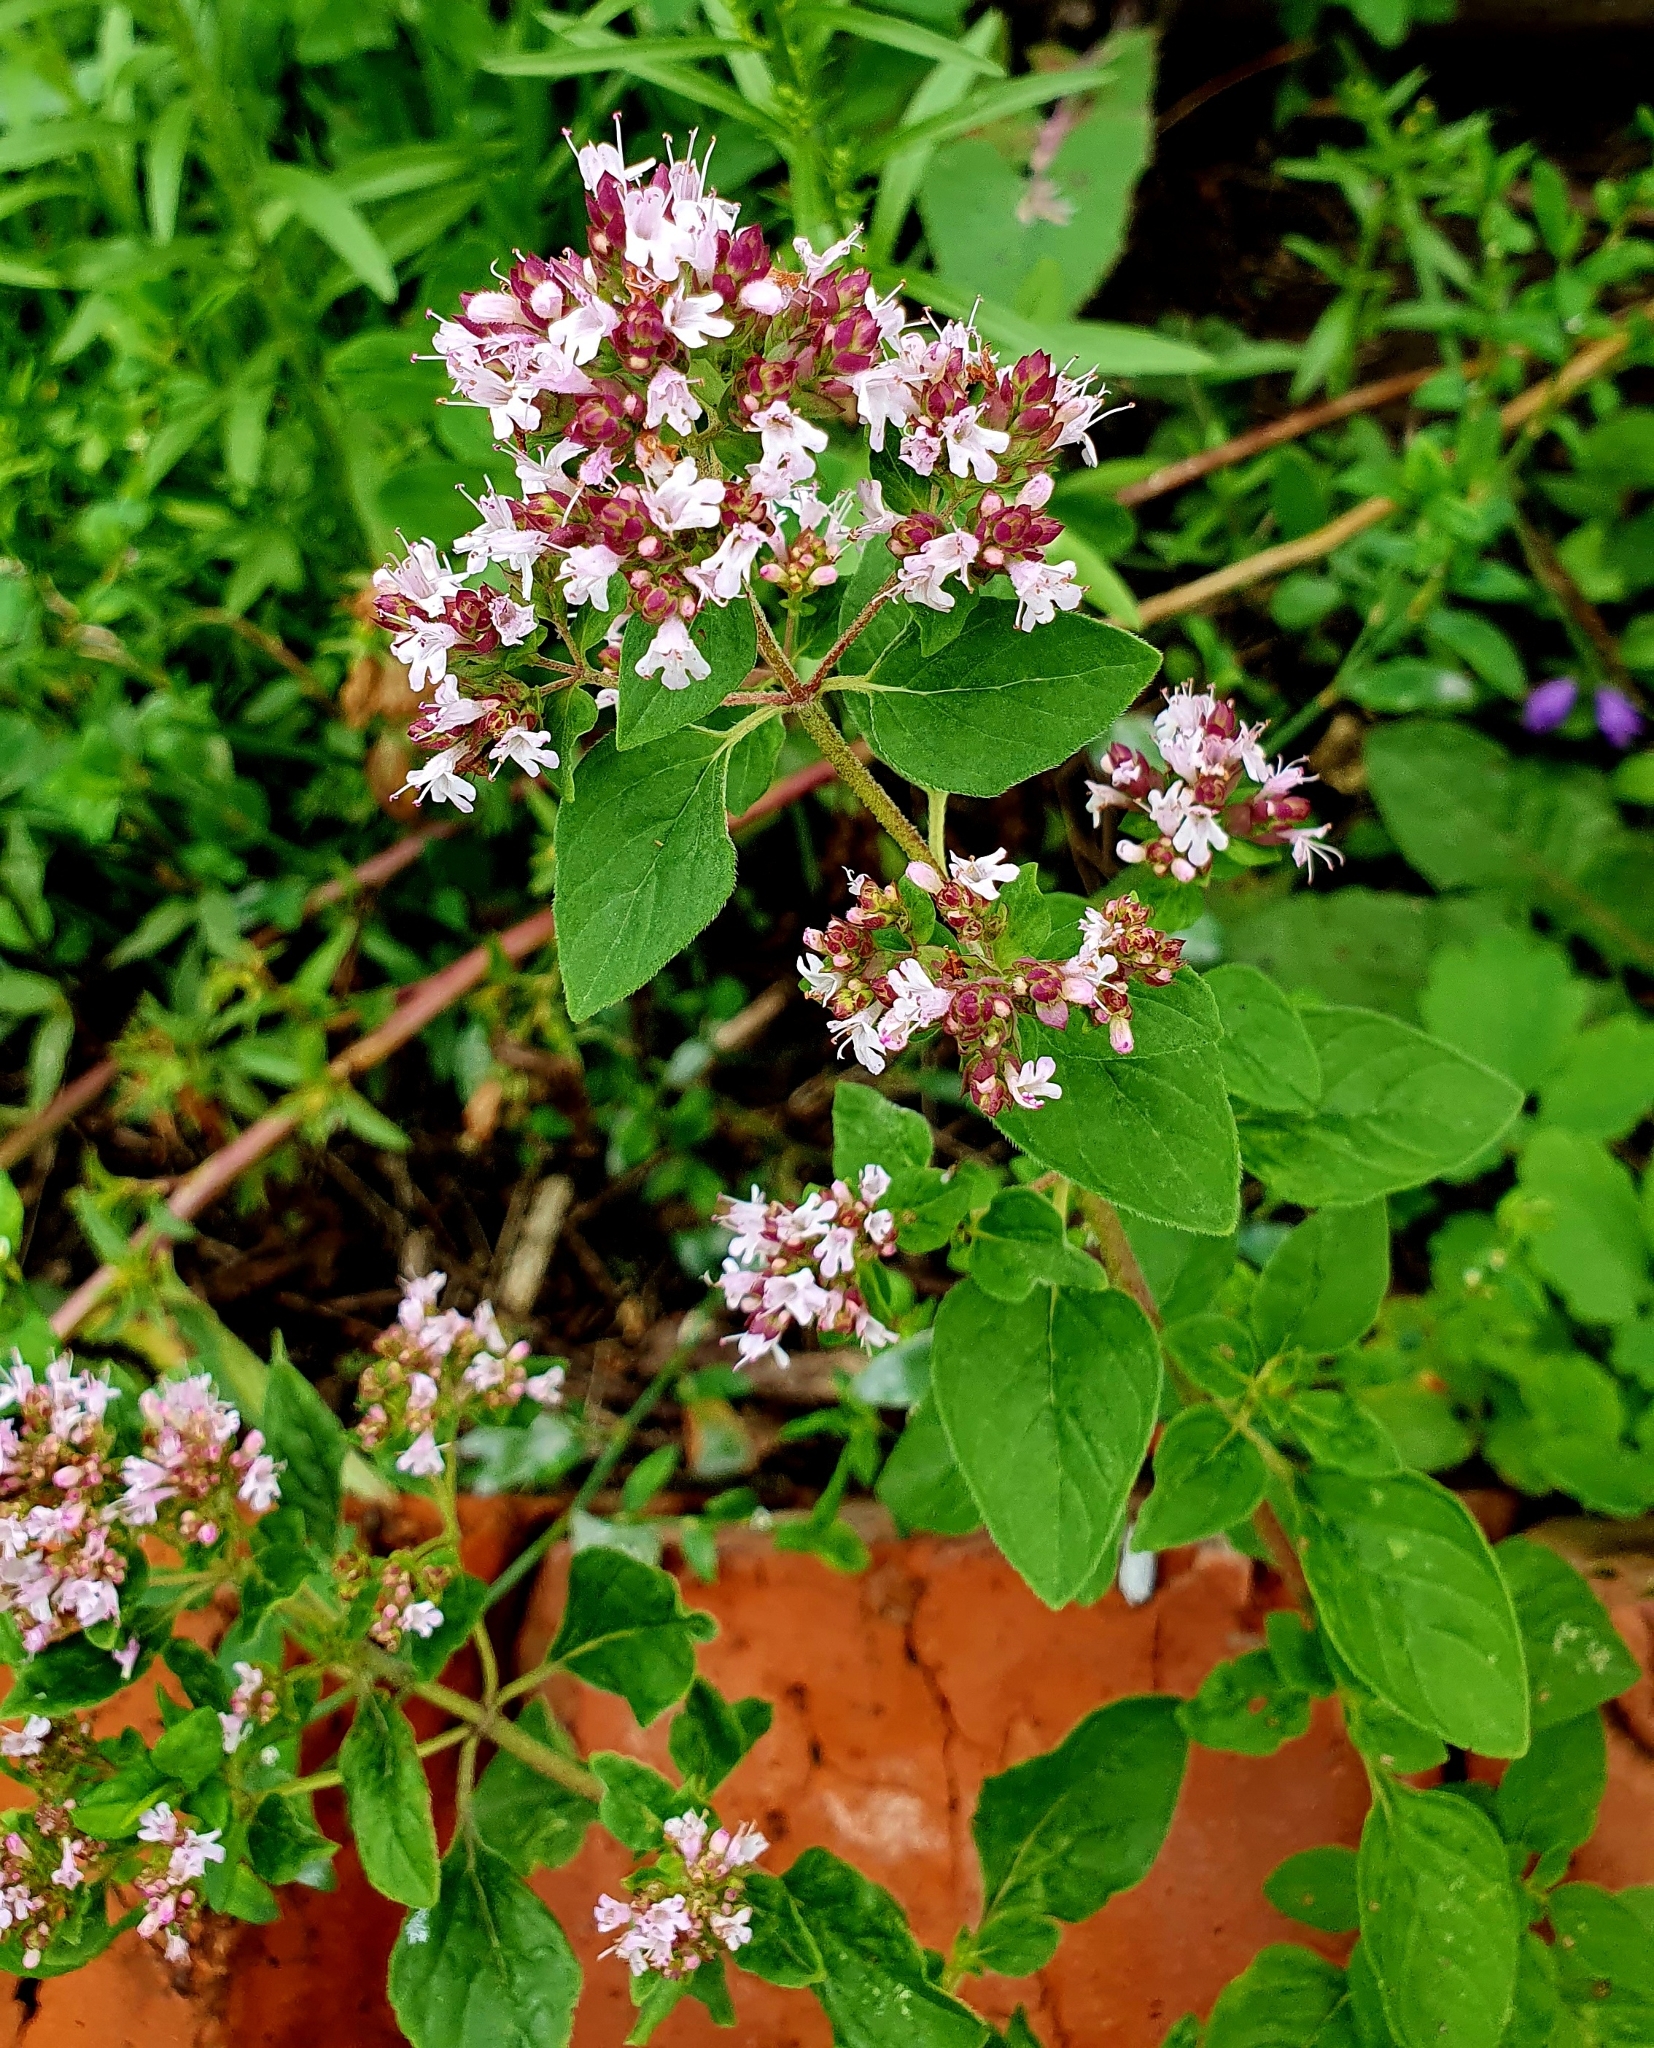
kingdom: Plantae
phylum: Tracheophyta
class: Magnoliopsida
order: Lamiales
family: Lamiaceae
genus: Origanum
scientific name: Origanum vulgare
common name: Wild marjoram
